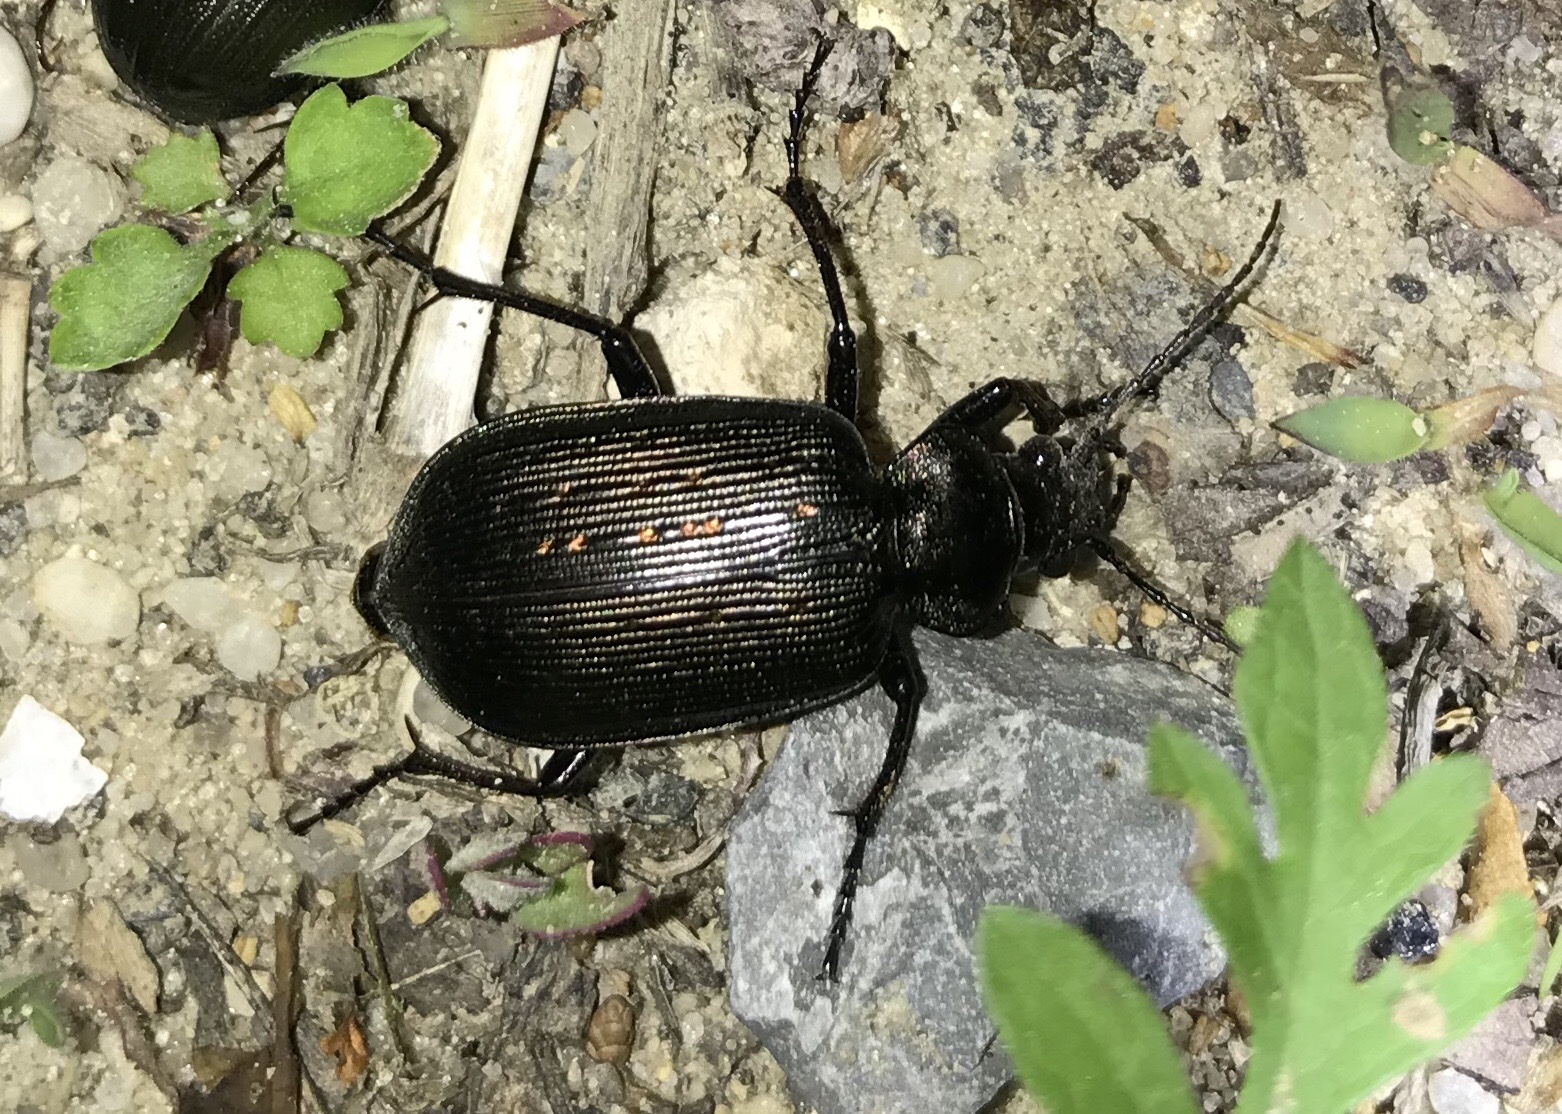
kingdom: Animalia
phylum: Arthropoda
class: Insecta
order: Coleoptera
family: Carabidae
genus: Calosoma
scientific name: Calosoma sayi
